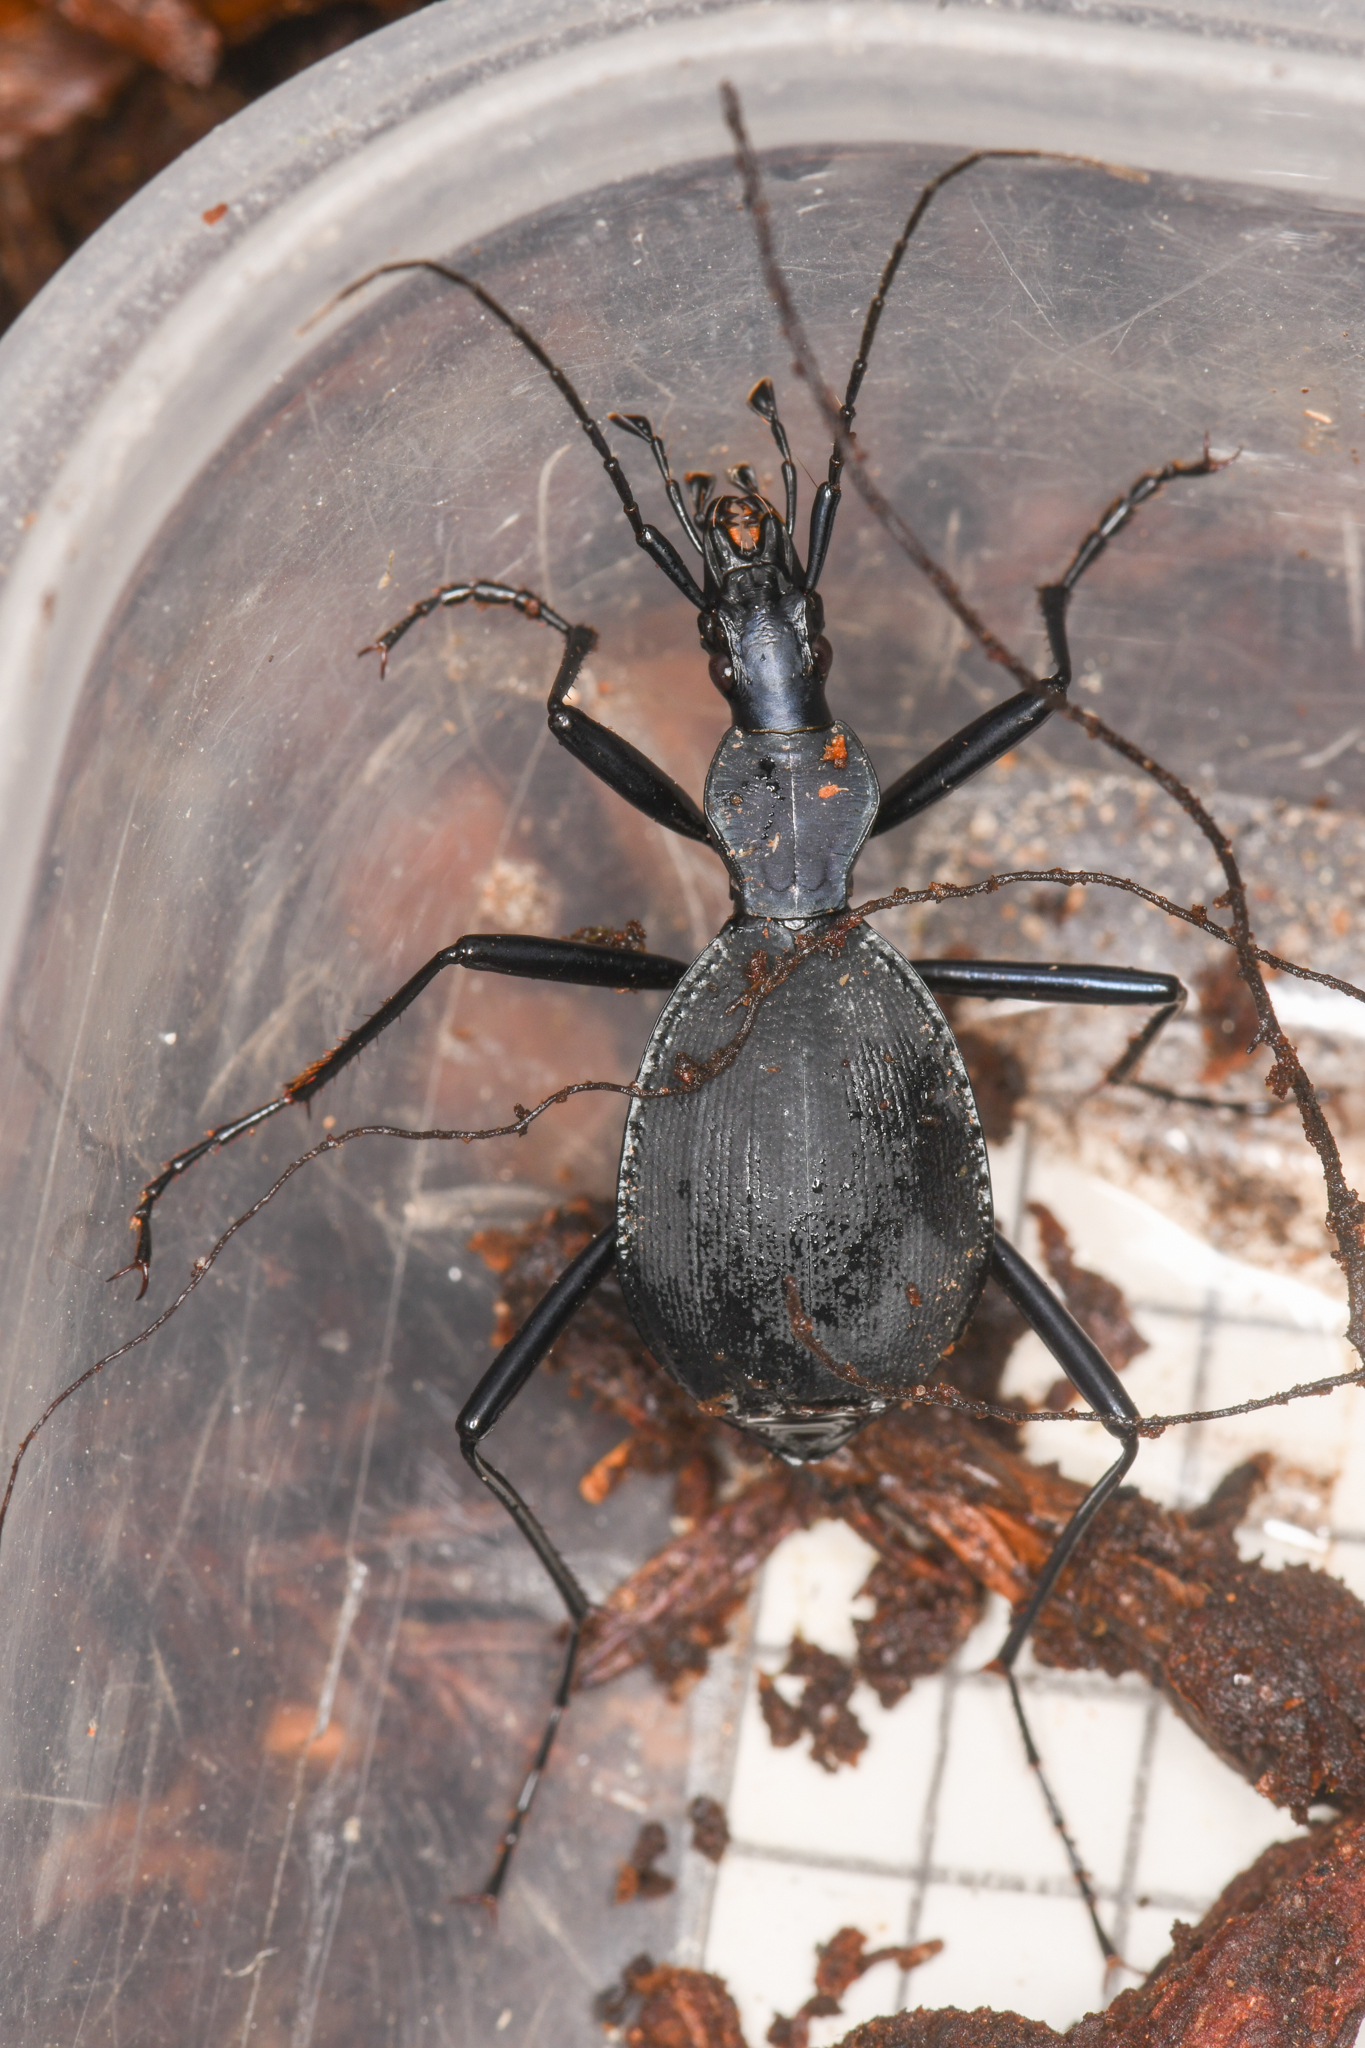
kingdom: Animalia
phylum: Arthropoda
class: Insecta
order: Coleoptera
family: Carabidae
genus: Scaphinotus
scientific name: Scaphinotus velutinus
